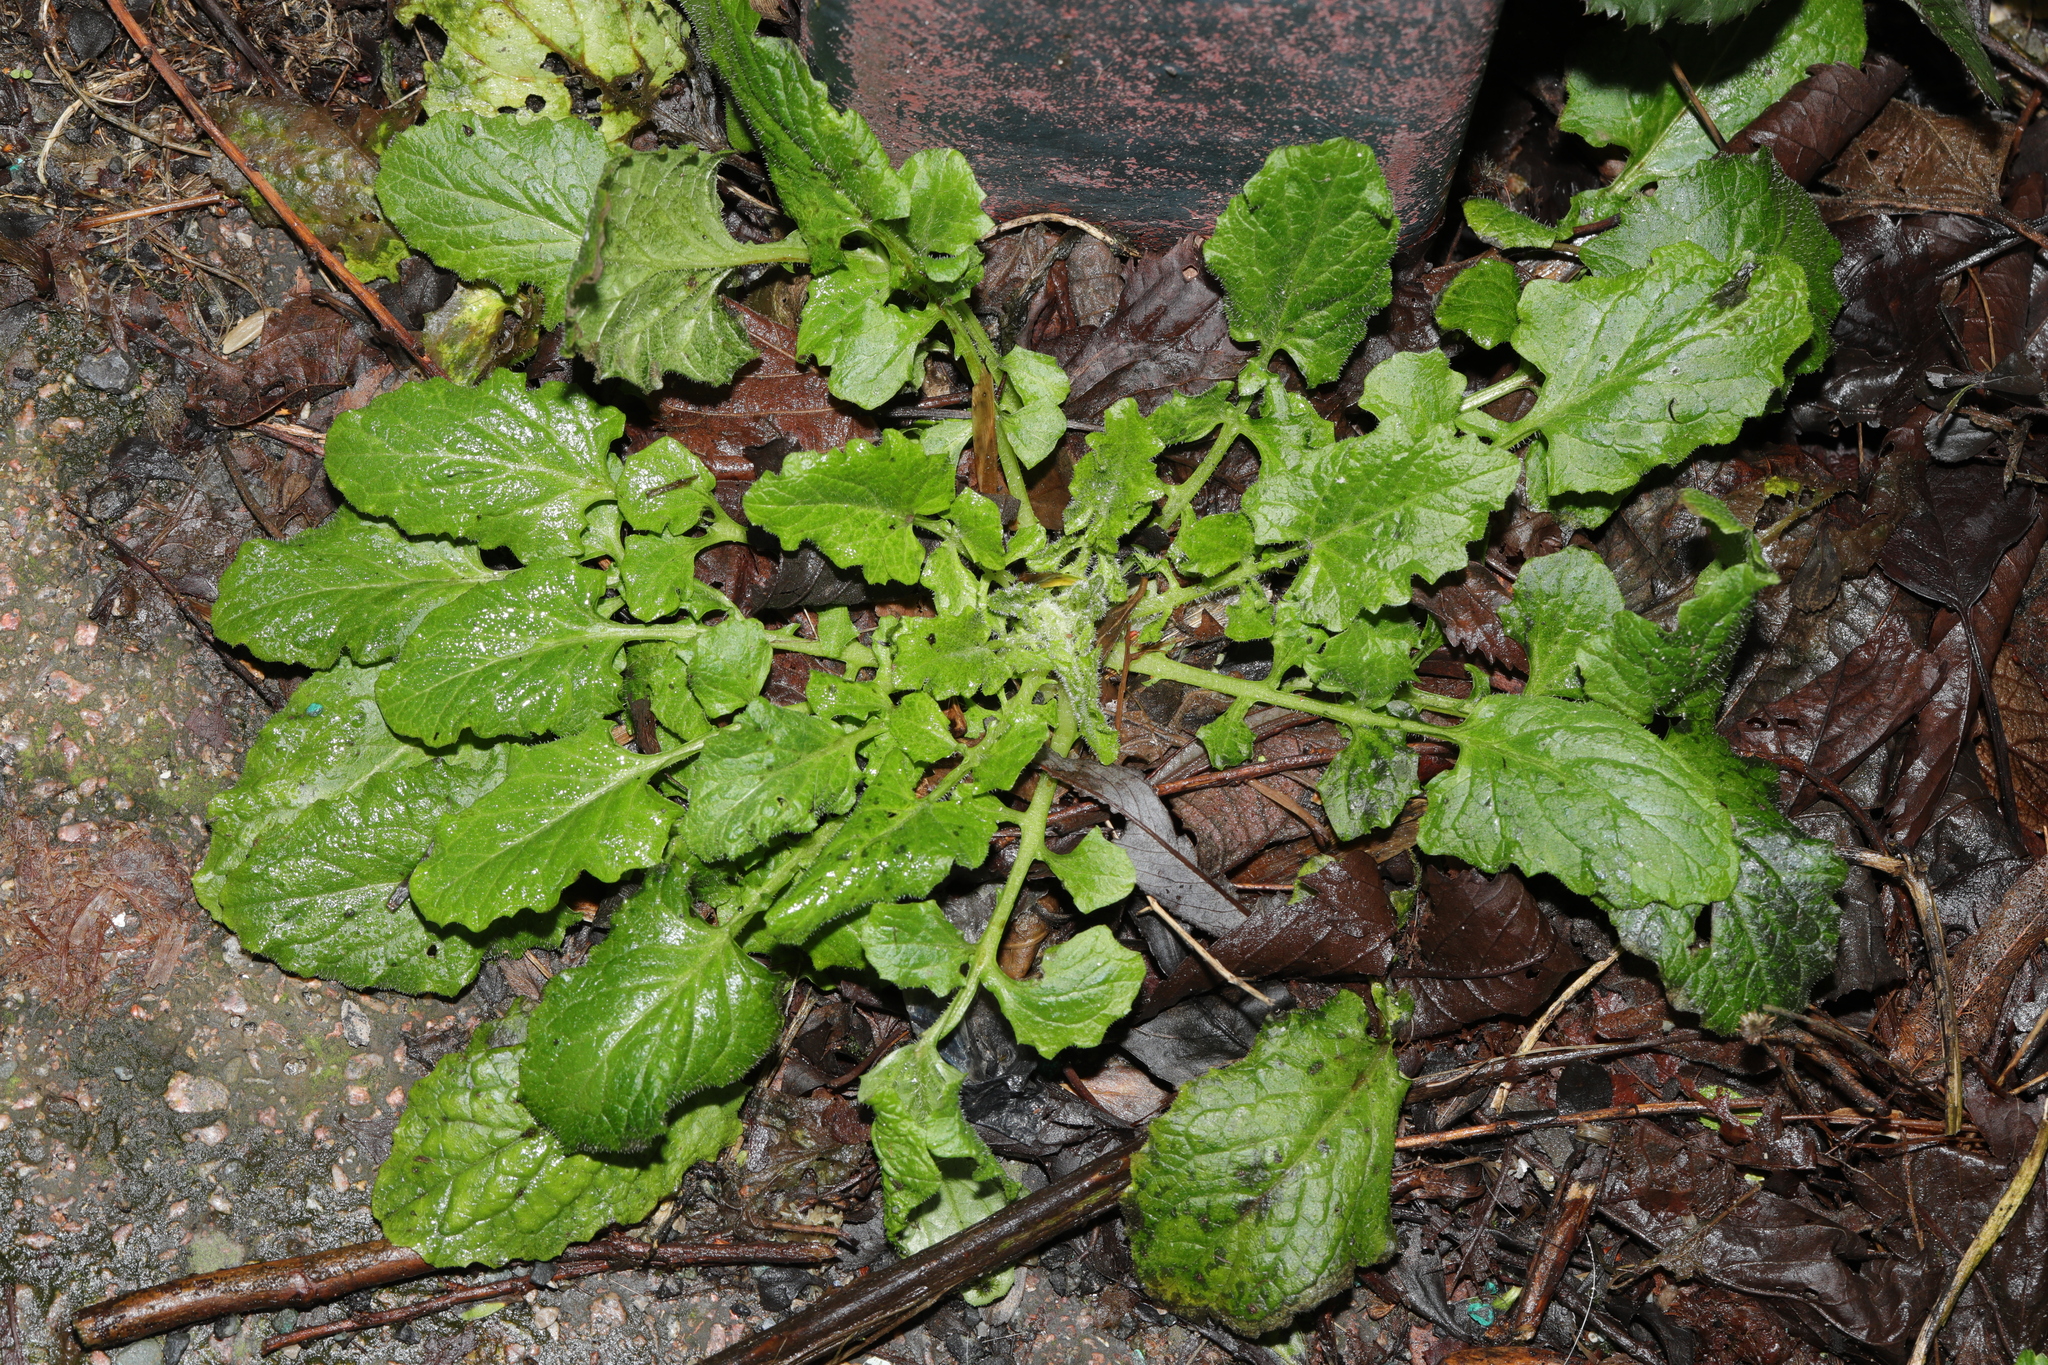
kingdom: Plantae
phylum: Tracheophyta
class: Magnoliopsida
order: Asterales
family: Asteraceae
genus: Lapsana
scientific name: Lapsana communis
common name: Nipplewort
